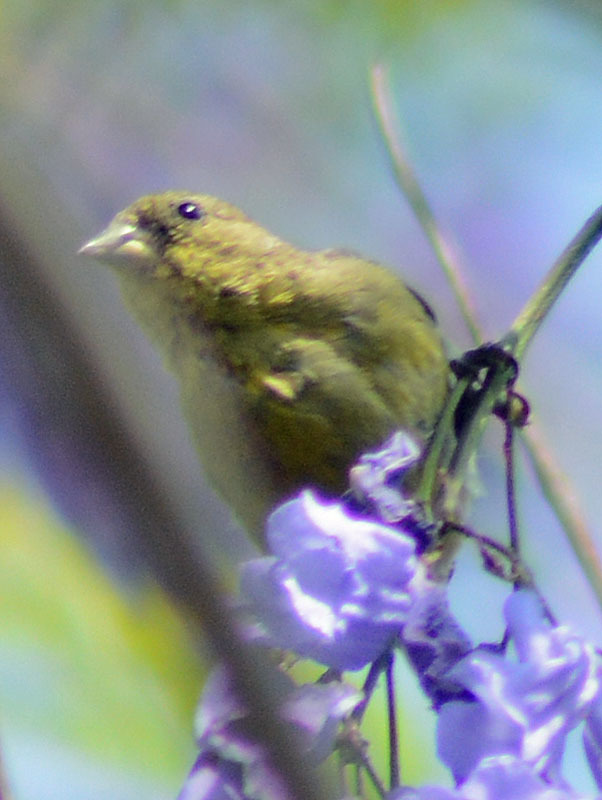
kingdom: Animalia
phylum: Chordata
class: Aves
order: Passeriformes
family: Fringillidae
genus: Spinus
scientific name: Spinus psaltria
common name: Lesser goldfinch
